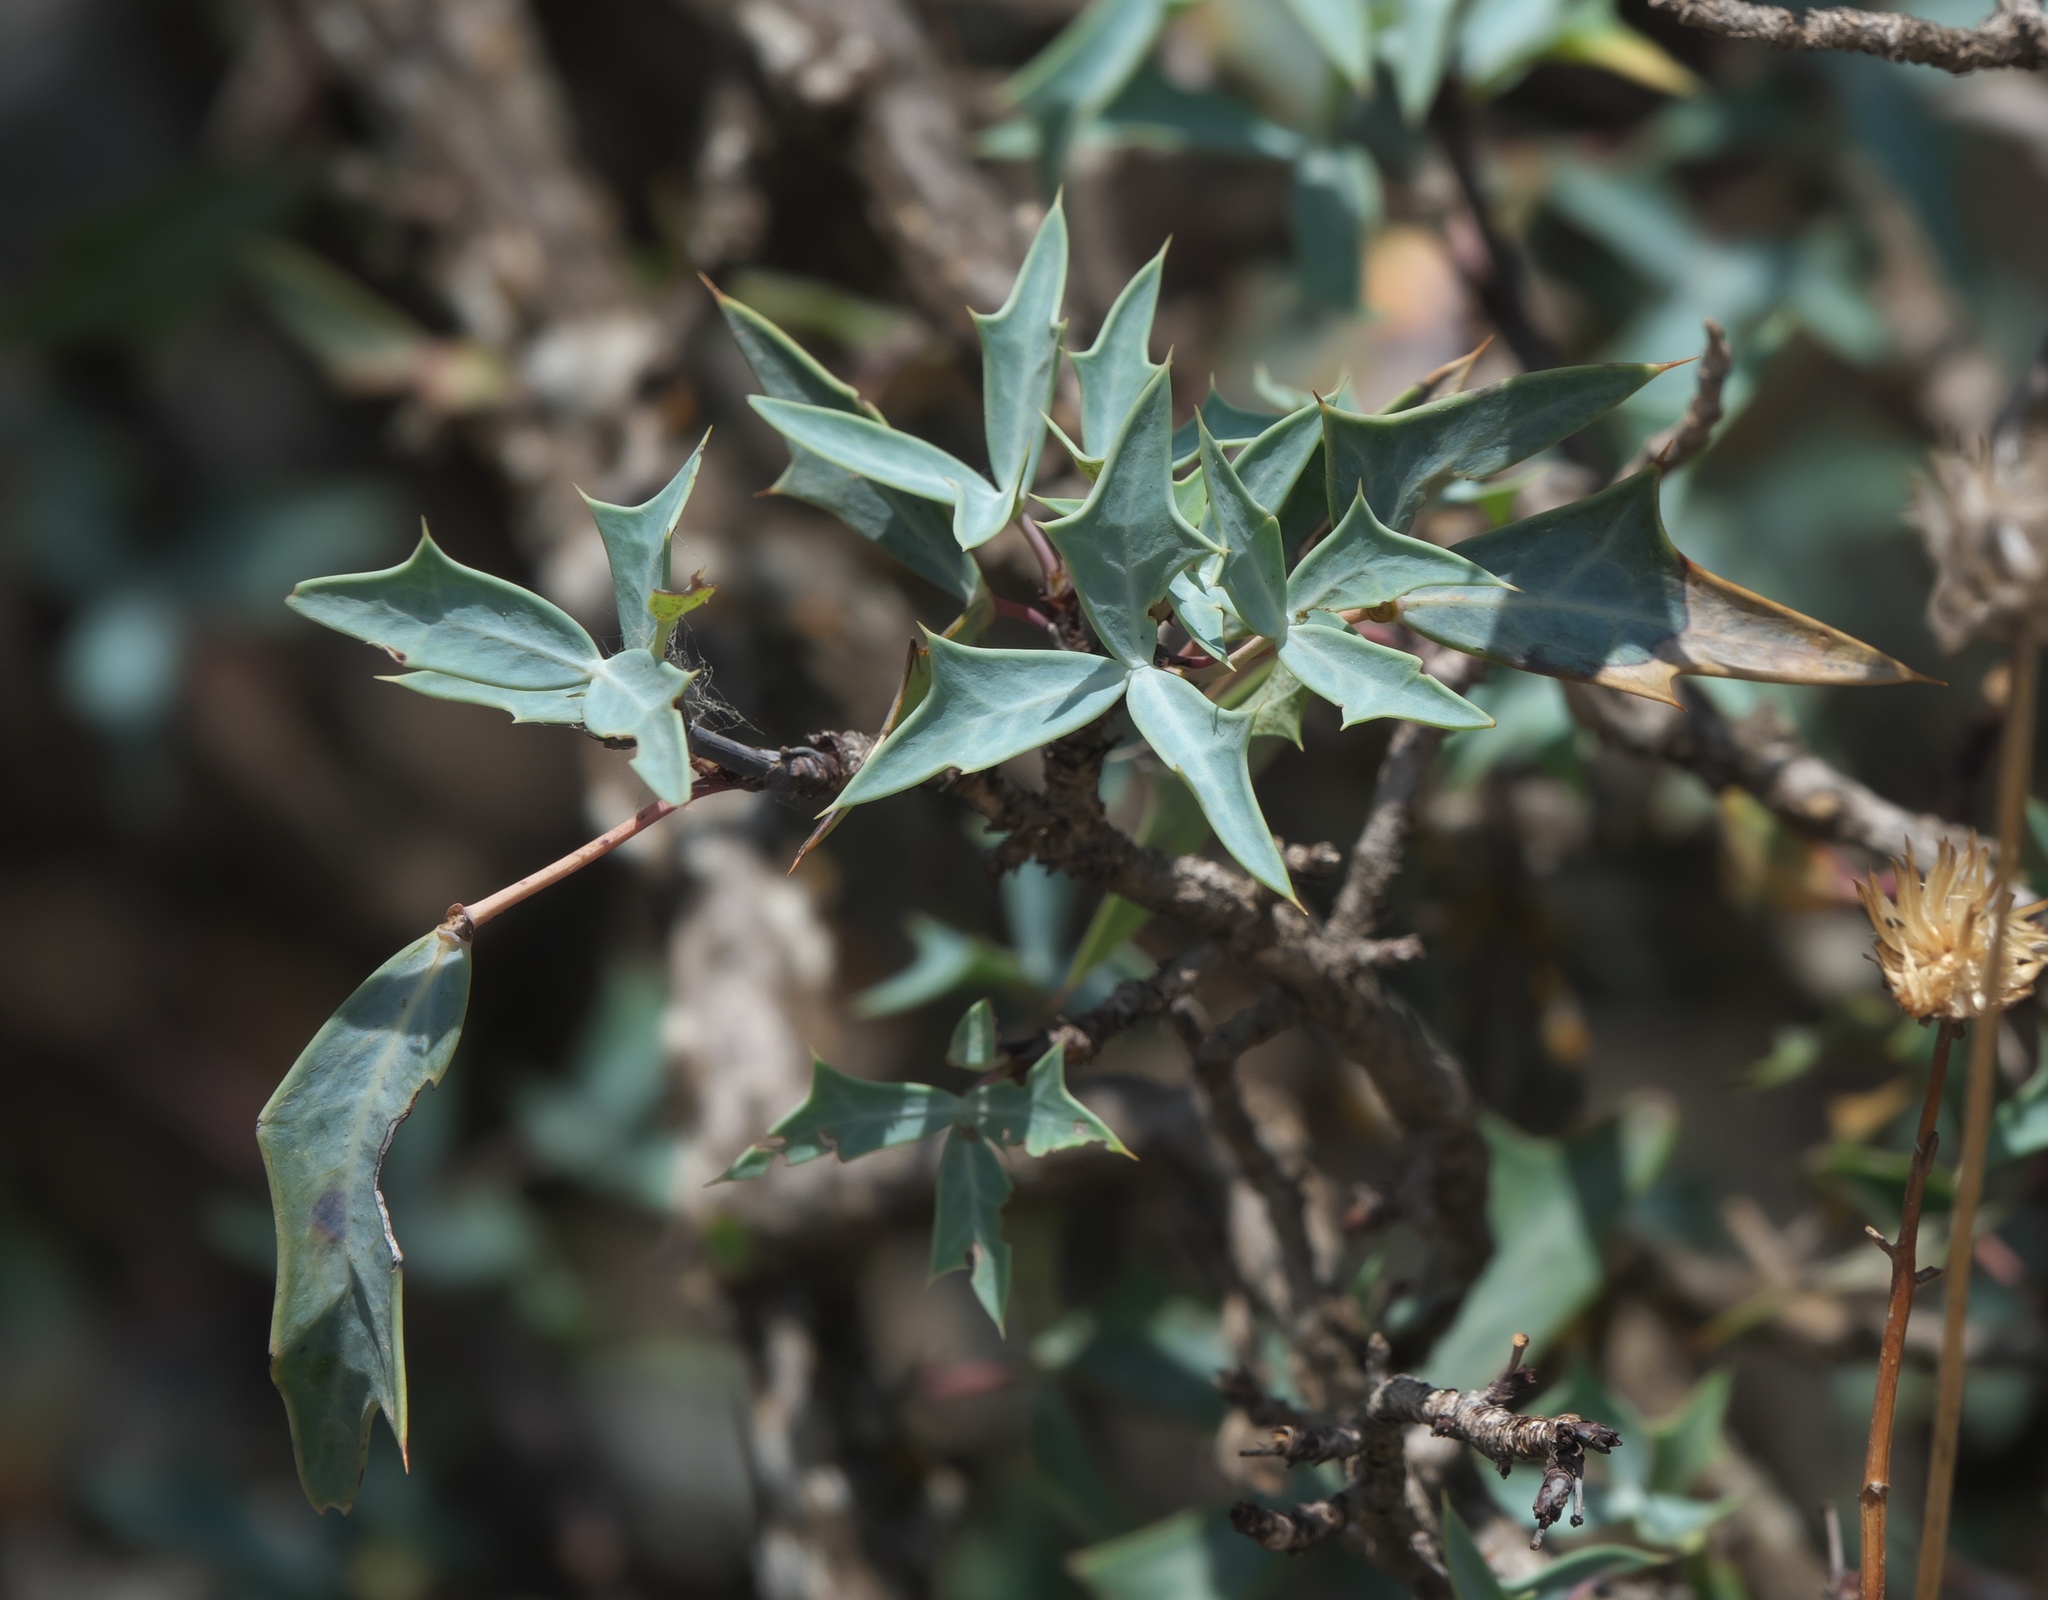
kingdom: Plantae
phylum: Tracheophyta
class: Magnoliopsida
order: Ranunculales
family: Berberidaceae
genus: Alloberberis
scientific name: Alloberberis trifoliolata
